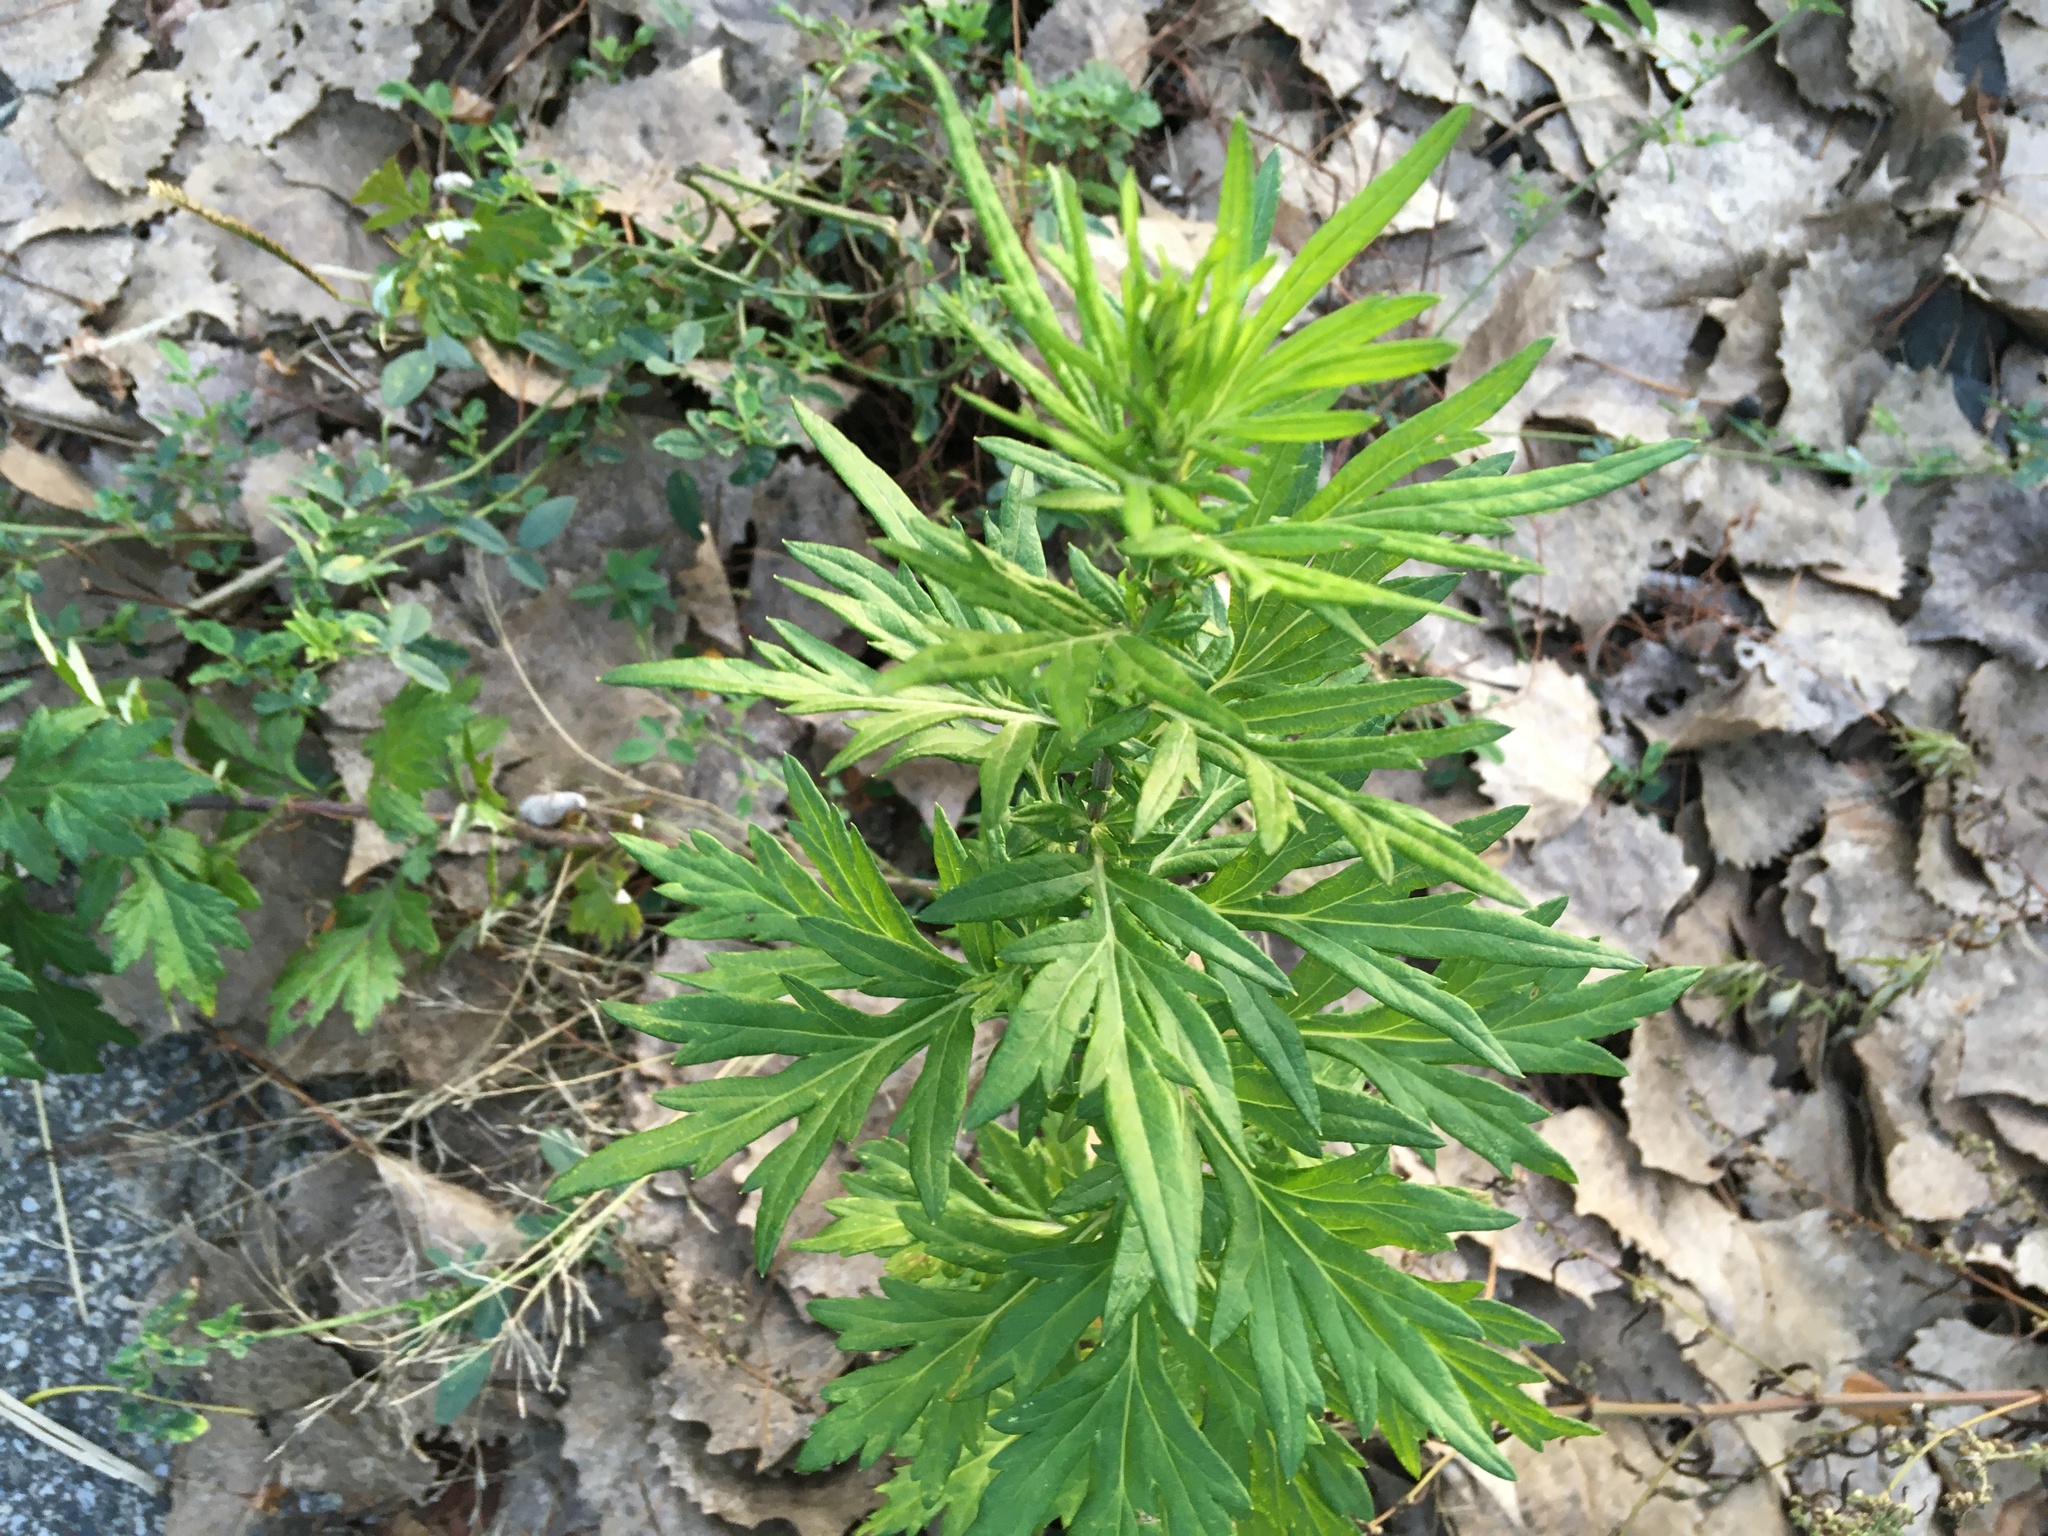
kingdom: Plantae
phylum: Tracheophyta
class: Magnoliopsida
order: Asterales
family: Asteraceae
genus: Artemisia
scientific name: Artemisia vulgaris
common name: Mugwort
